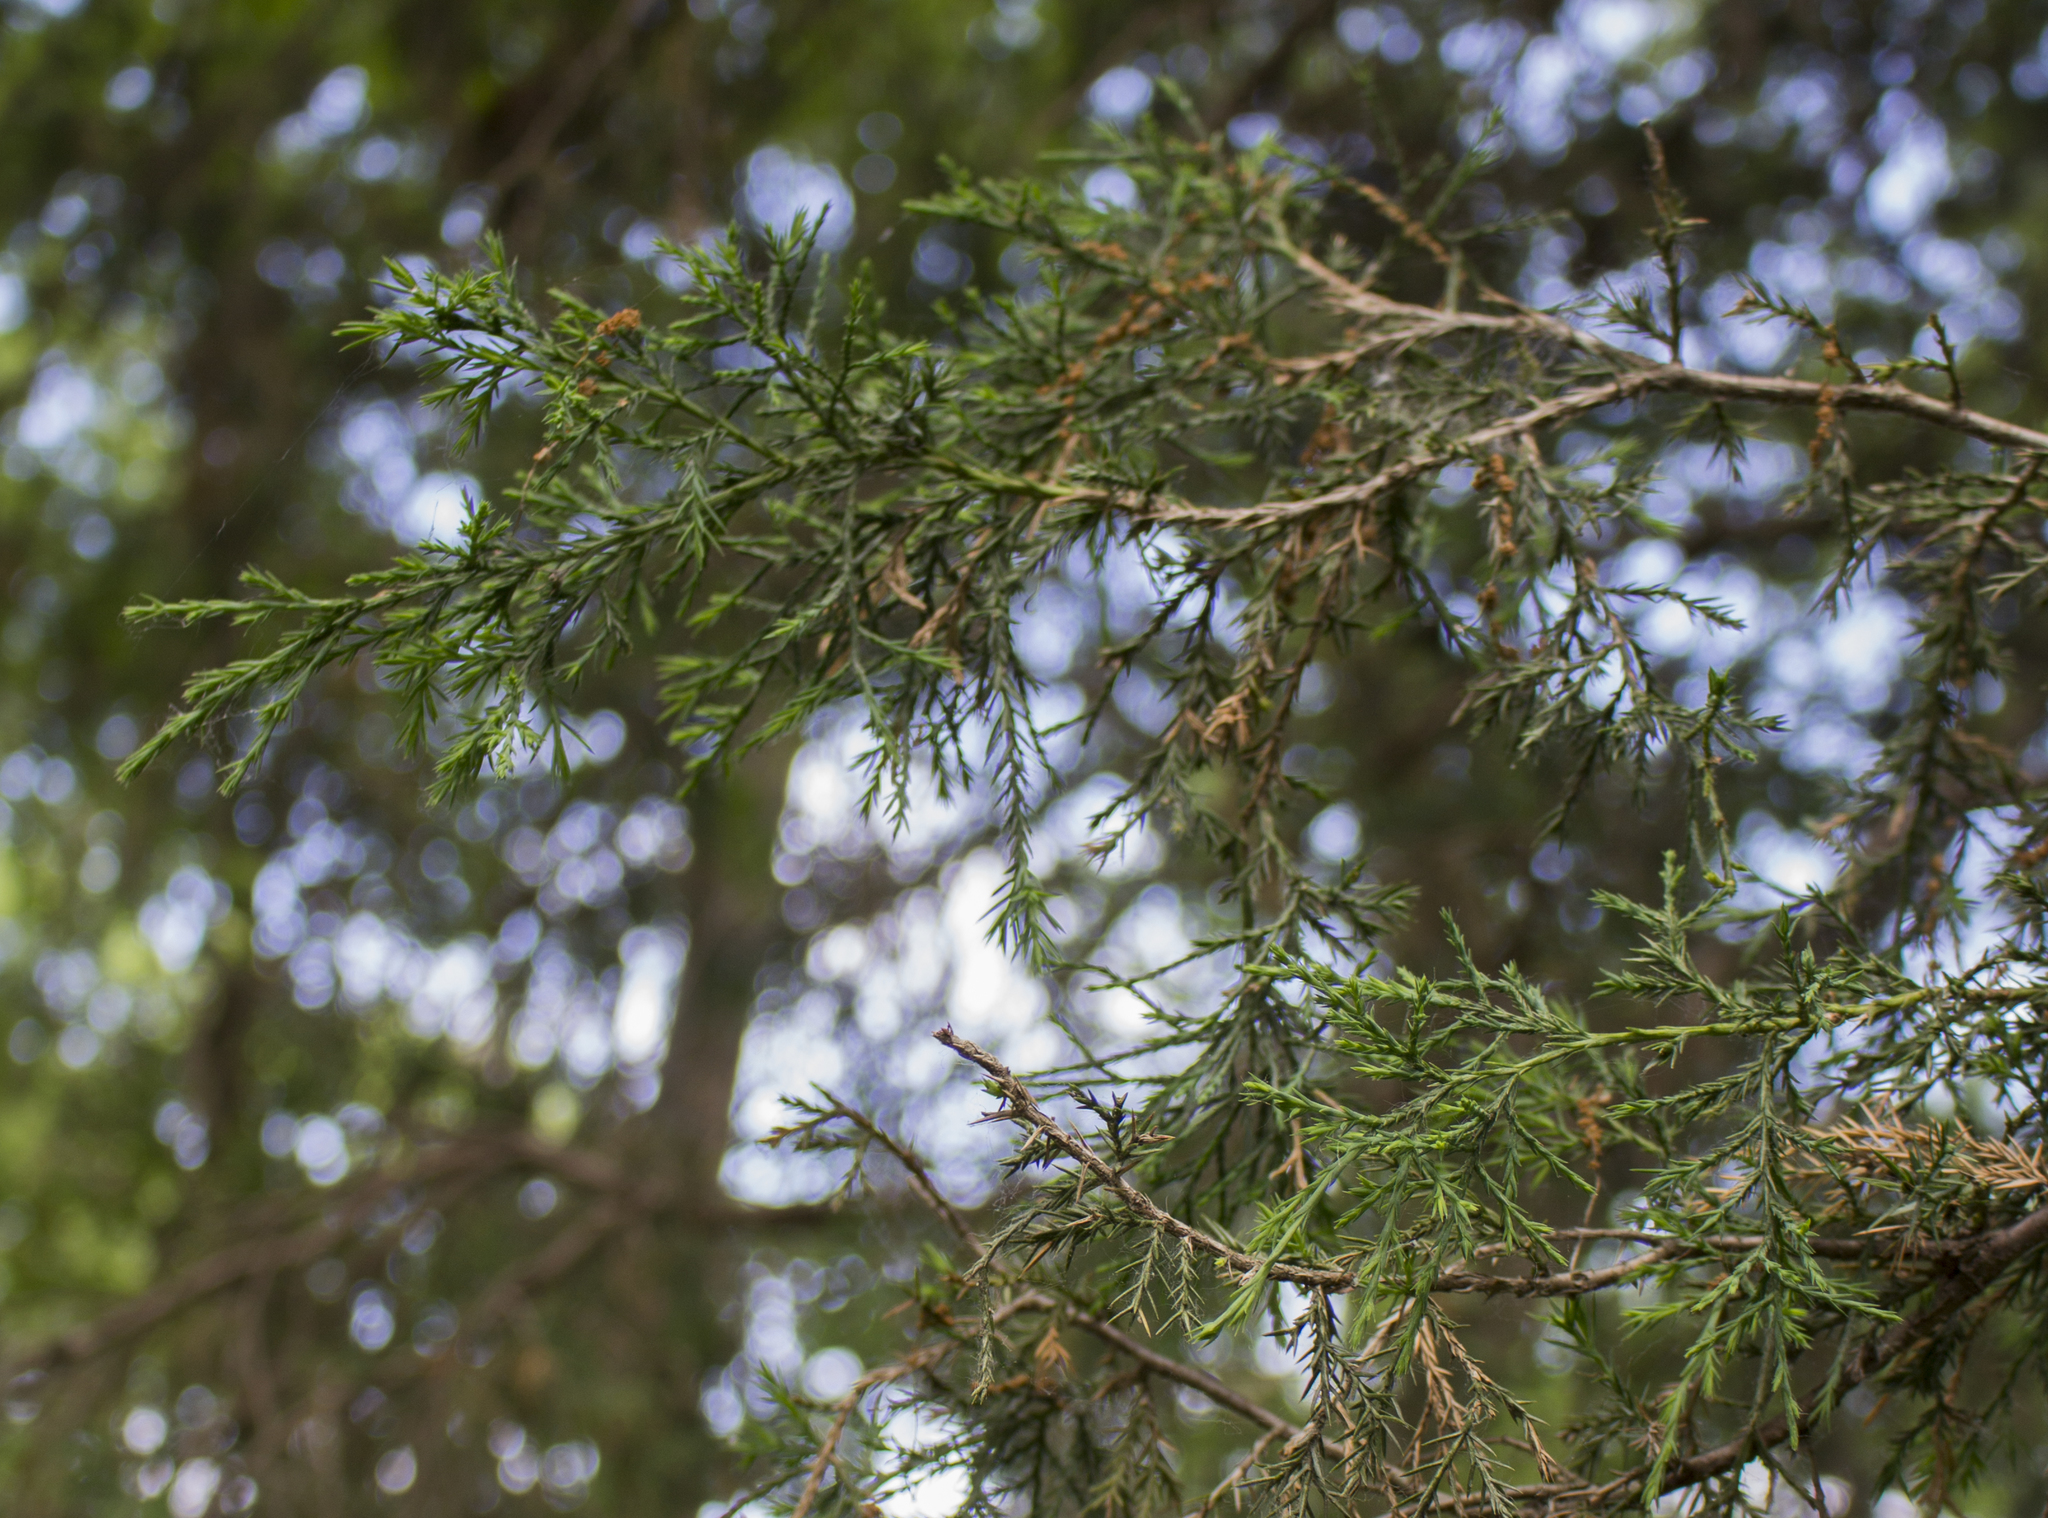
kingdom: Plantae
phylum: Tracheophyta
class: Pinopsida
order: Pinales
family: Cupressaceae
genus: Juniperus
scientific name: Juniperus virginiana
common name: Red juniper
